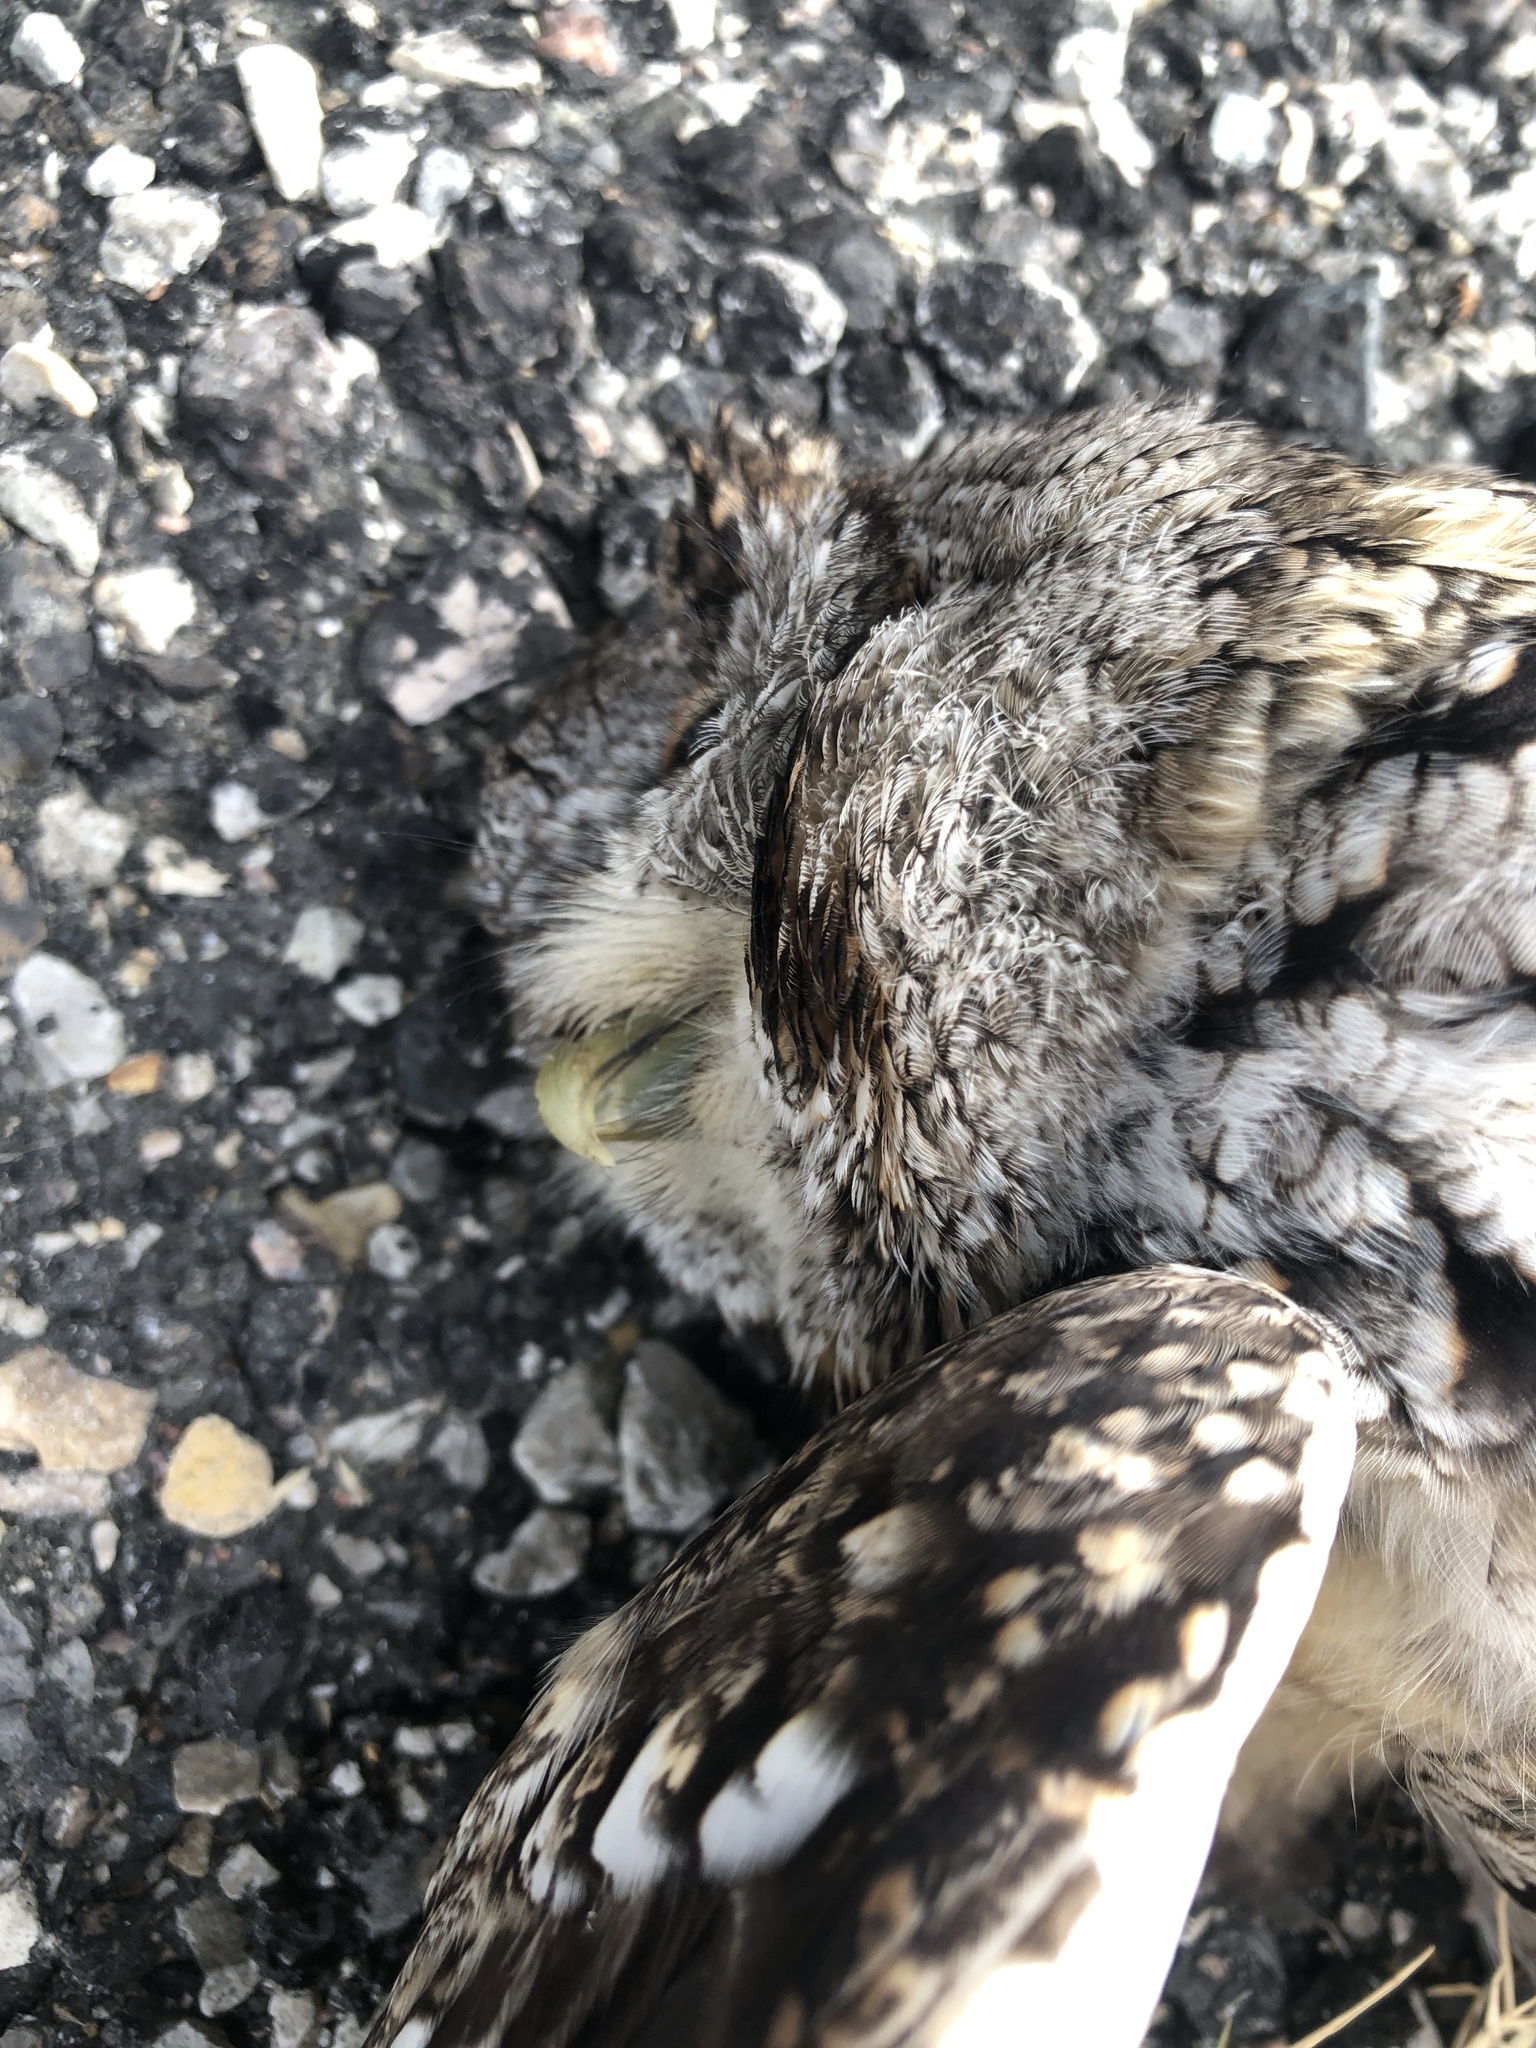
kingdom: Animalia
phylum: Chordata
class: Aves
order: Strigiformes
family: Strigidae
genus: Megascops
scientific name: Megascops asio
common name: Eastern screech-owl
